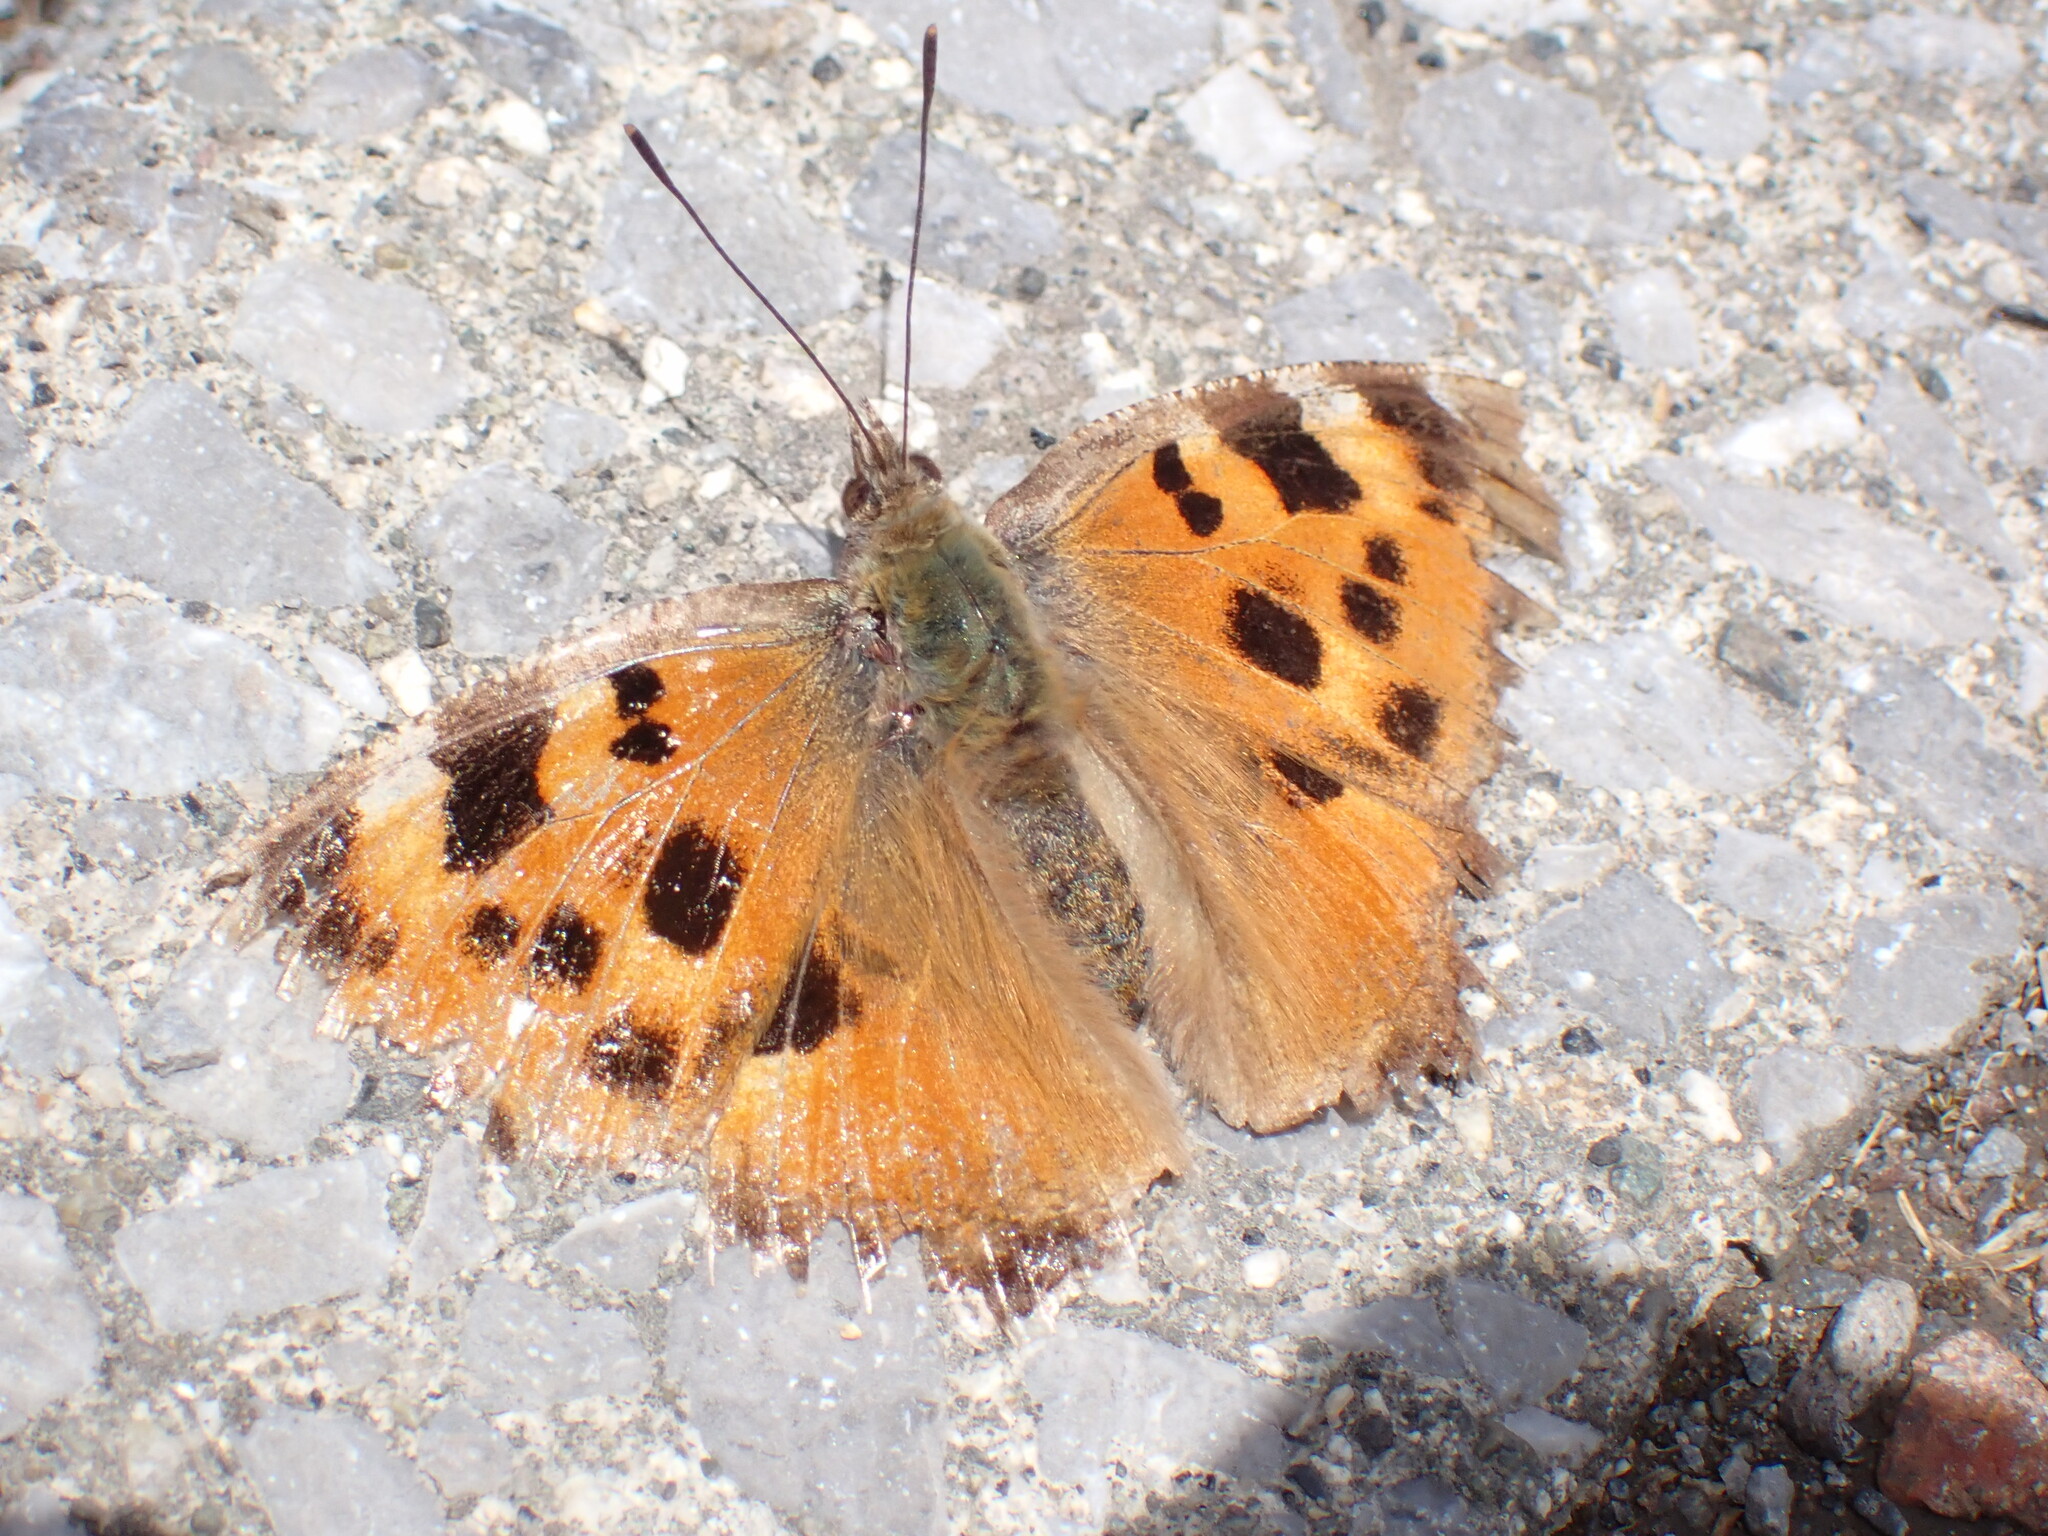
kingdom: Animalia
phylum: Arthropoda
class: Insecta
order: Lepidoptera
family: Nymphalidae
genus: Nymphalis
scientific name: Nymphalis xanthomelas
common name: Scarce tortoiseshell
